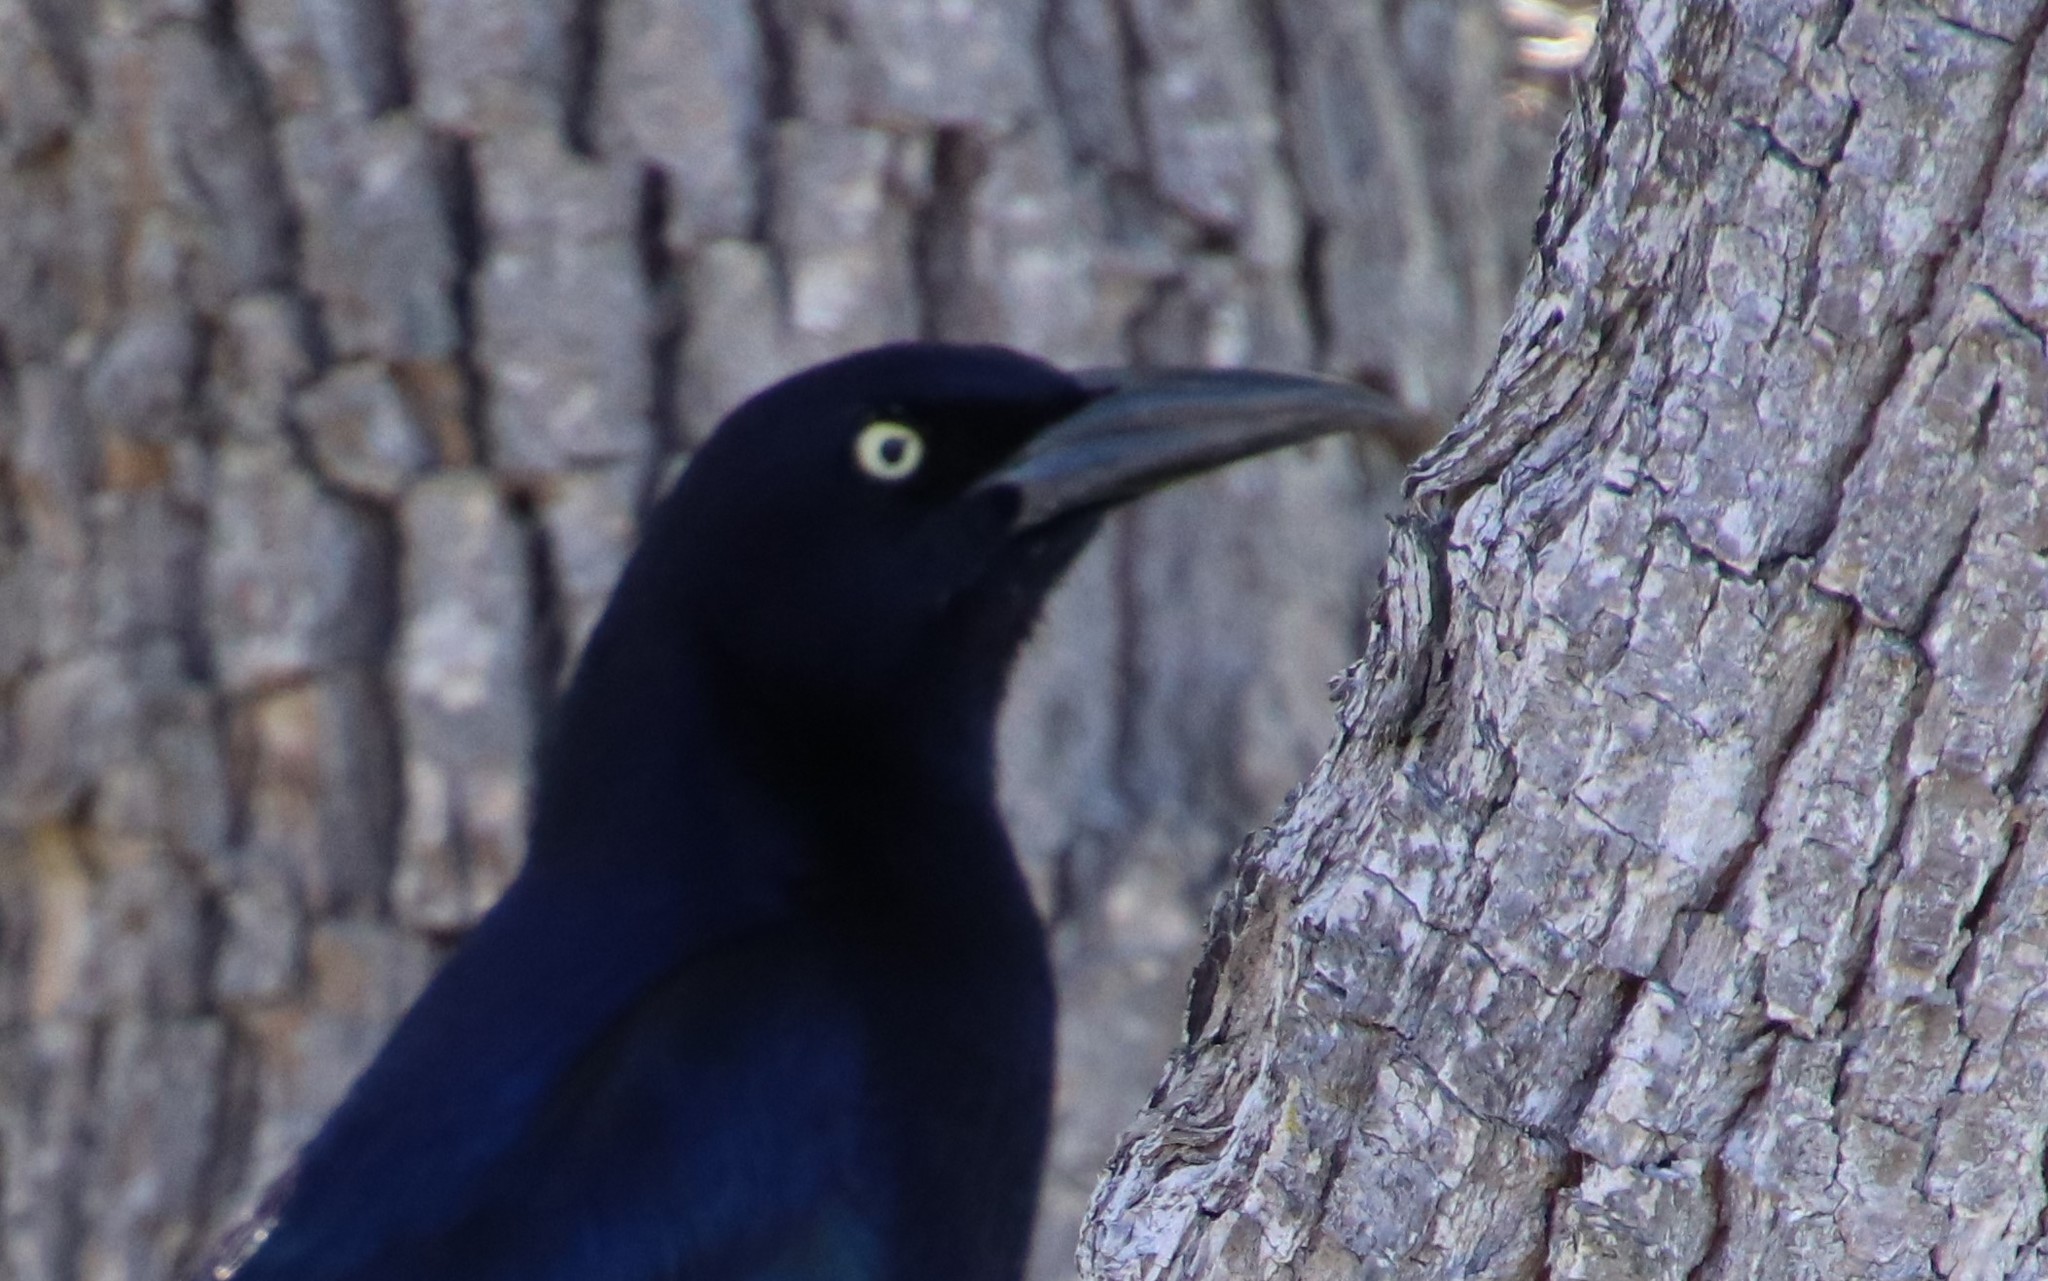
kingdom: Animalia
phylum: Chordata
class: Aves
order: Passeriformes
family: Icteridae
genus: Quiscalus
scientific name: Quiscalus mexicanus
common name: Great-tailed grackle
